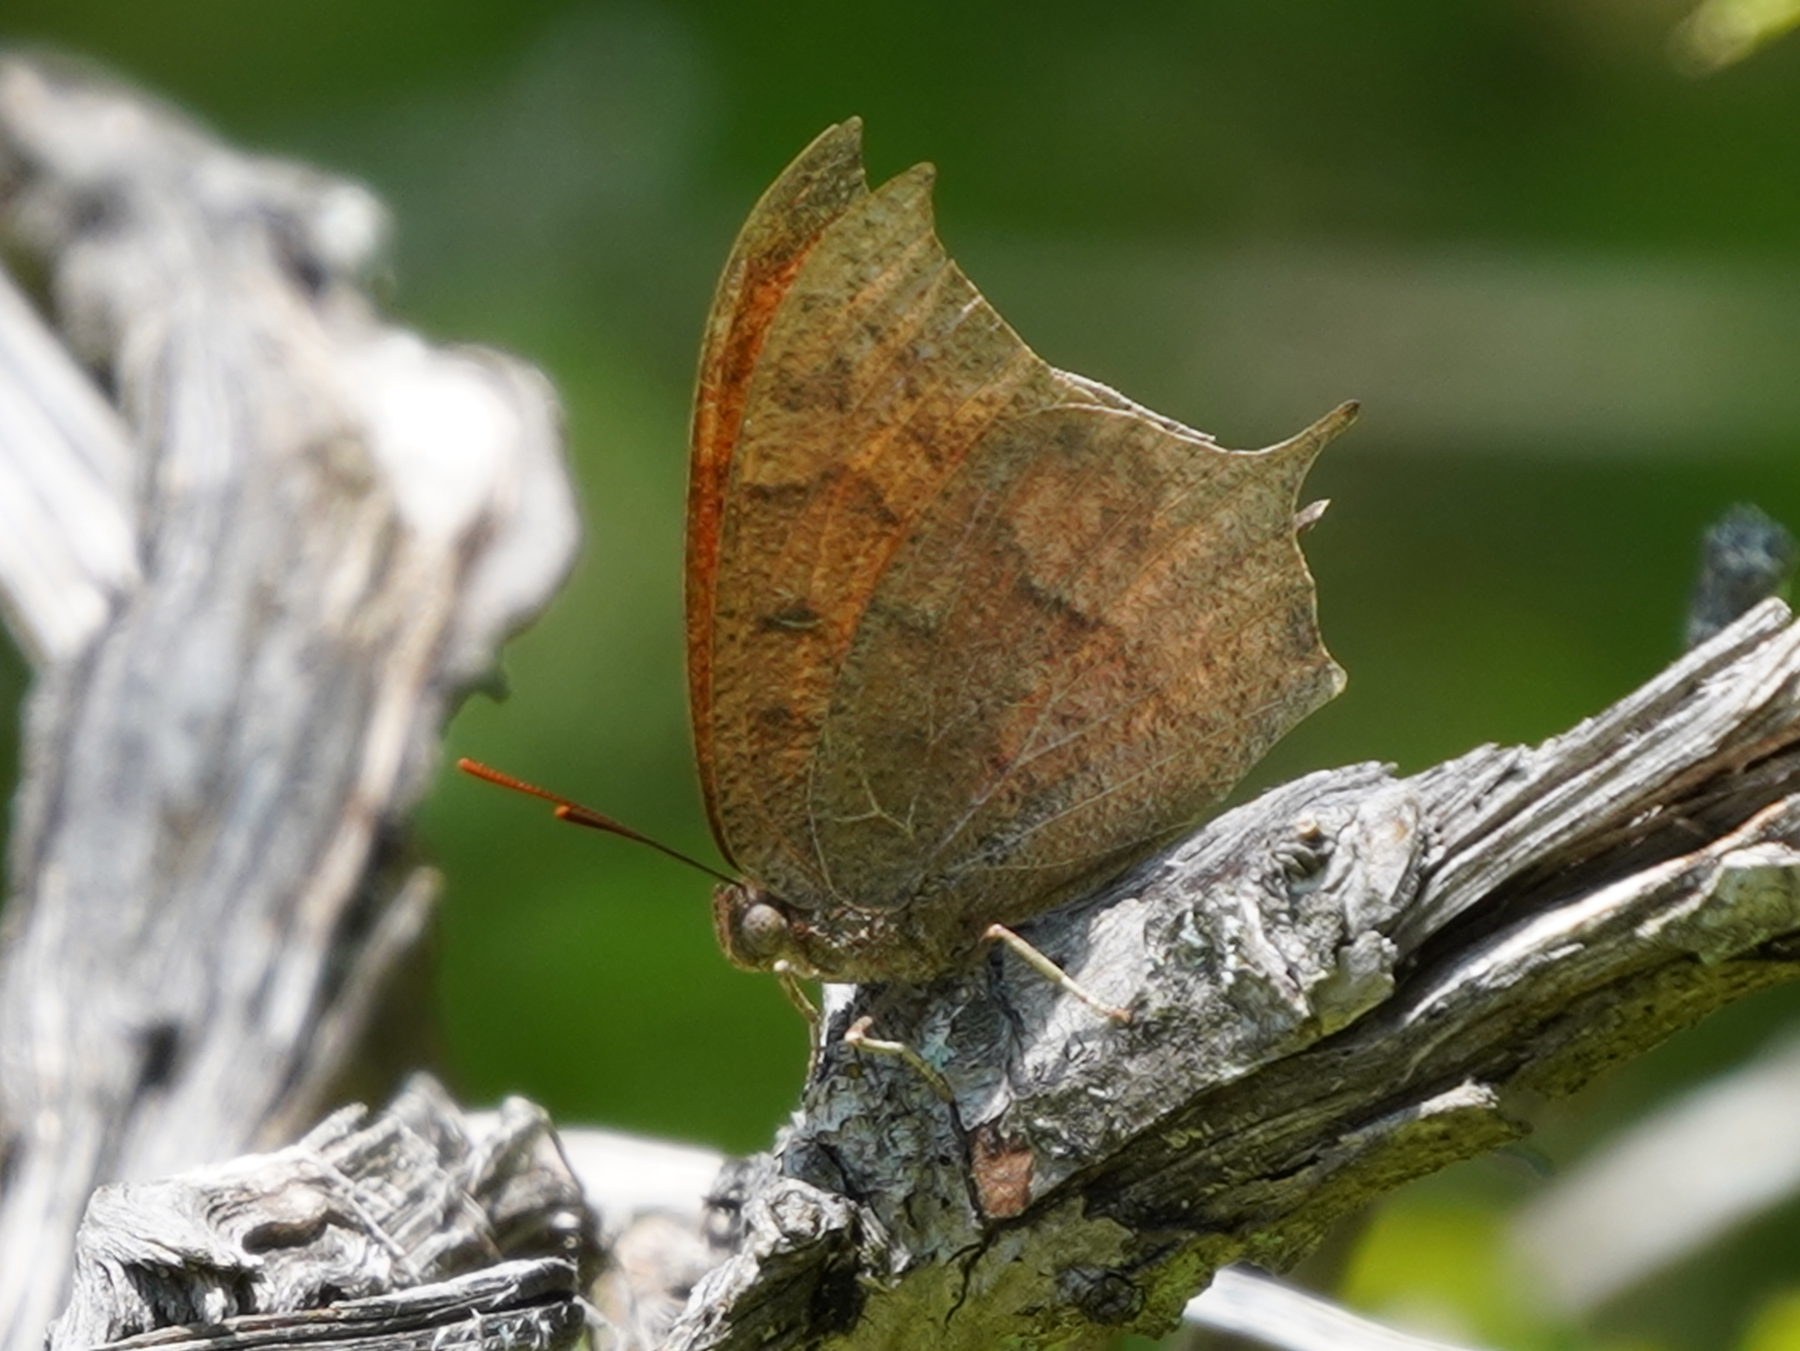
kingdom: Animalia
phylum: Arthropoda
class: Insecta
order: Lepidoptera
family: Nymphalidae
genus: Anaea
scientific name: Anaea andria
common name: Goatweed leafwing
